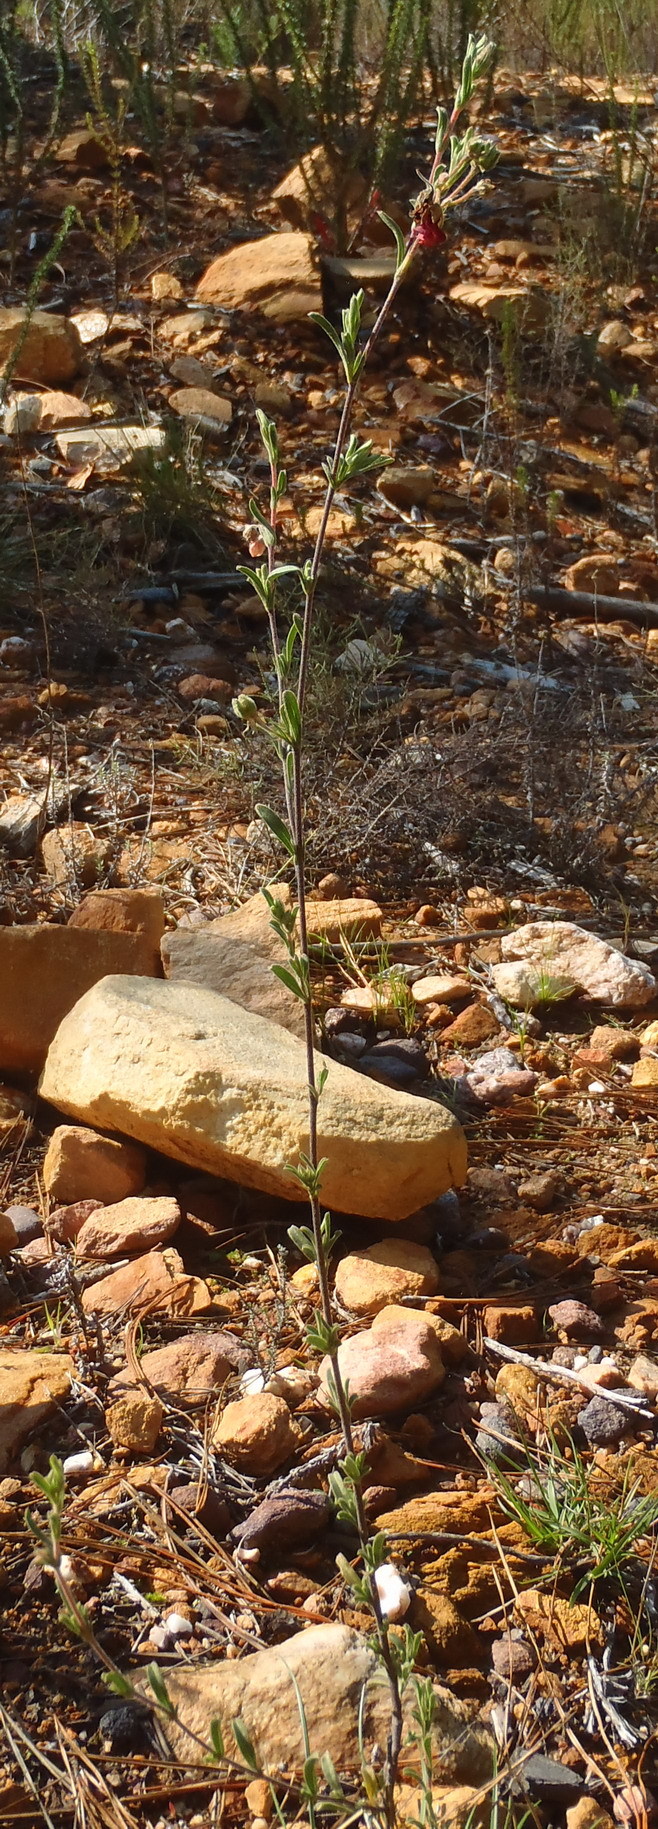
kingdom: Plantae
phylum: Tracheophyta
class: Magnoliopsida
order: Malvales
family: Malvaceae
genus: Hermannia
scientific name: Hermannia flammula
